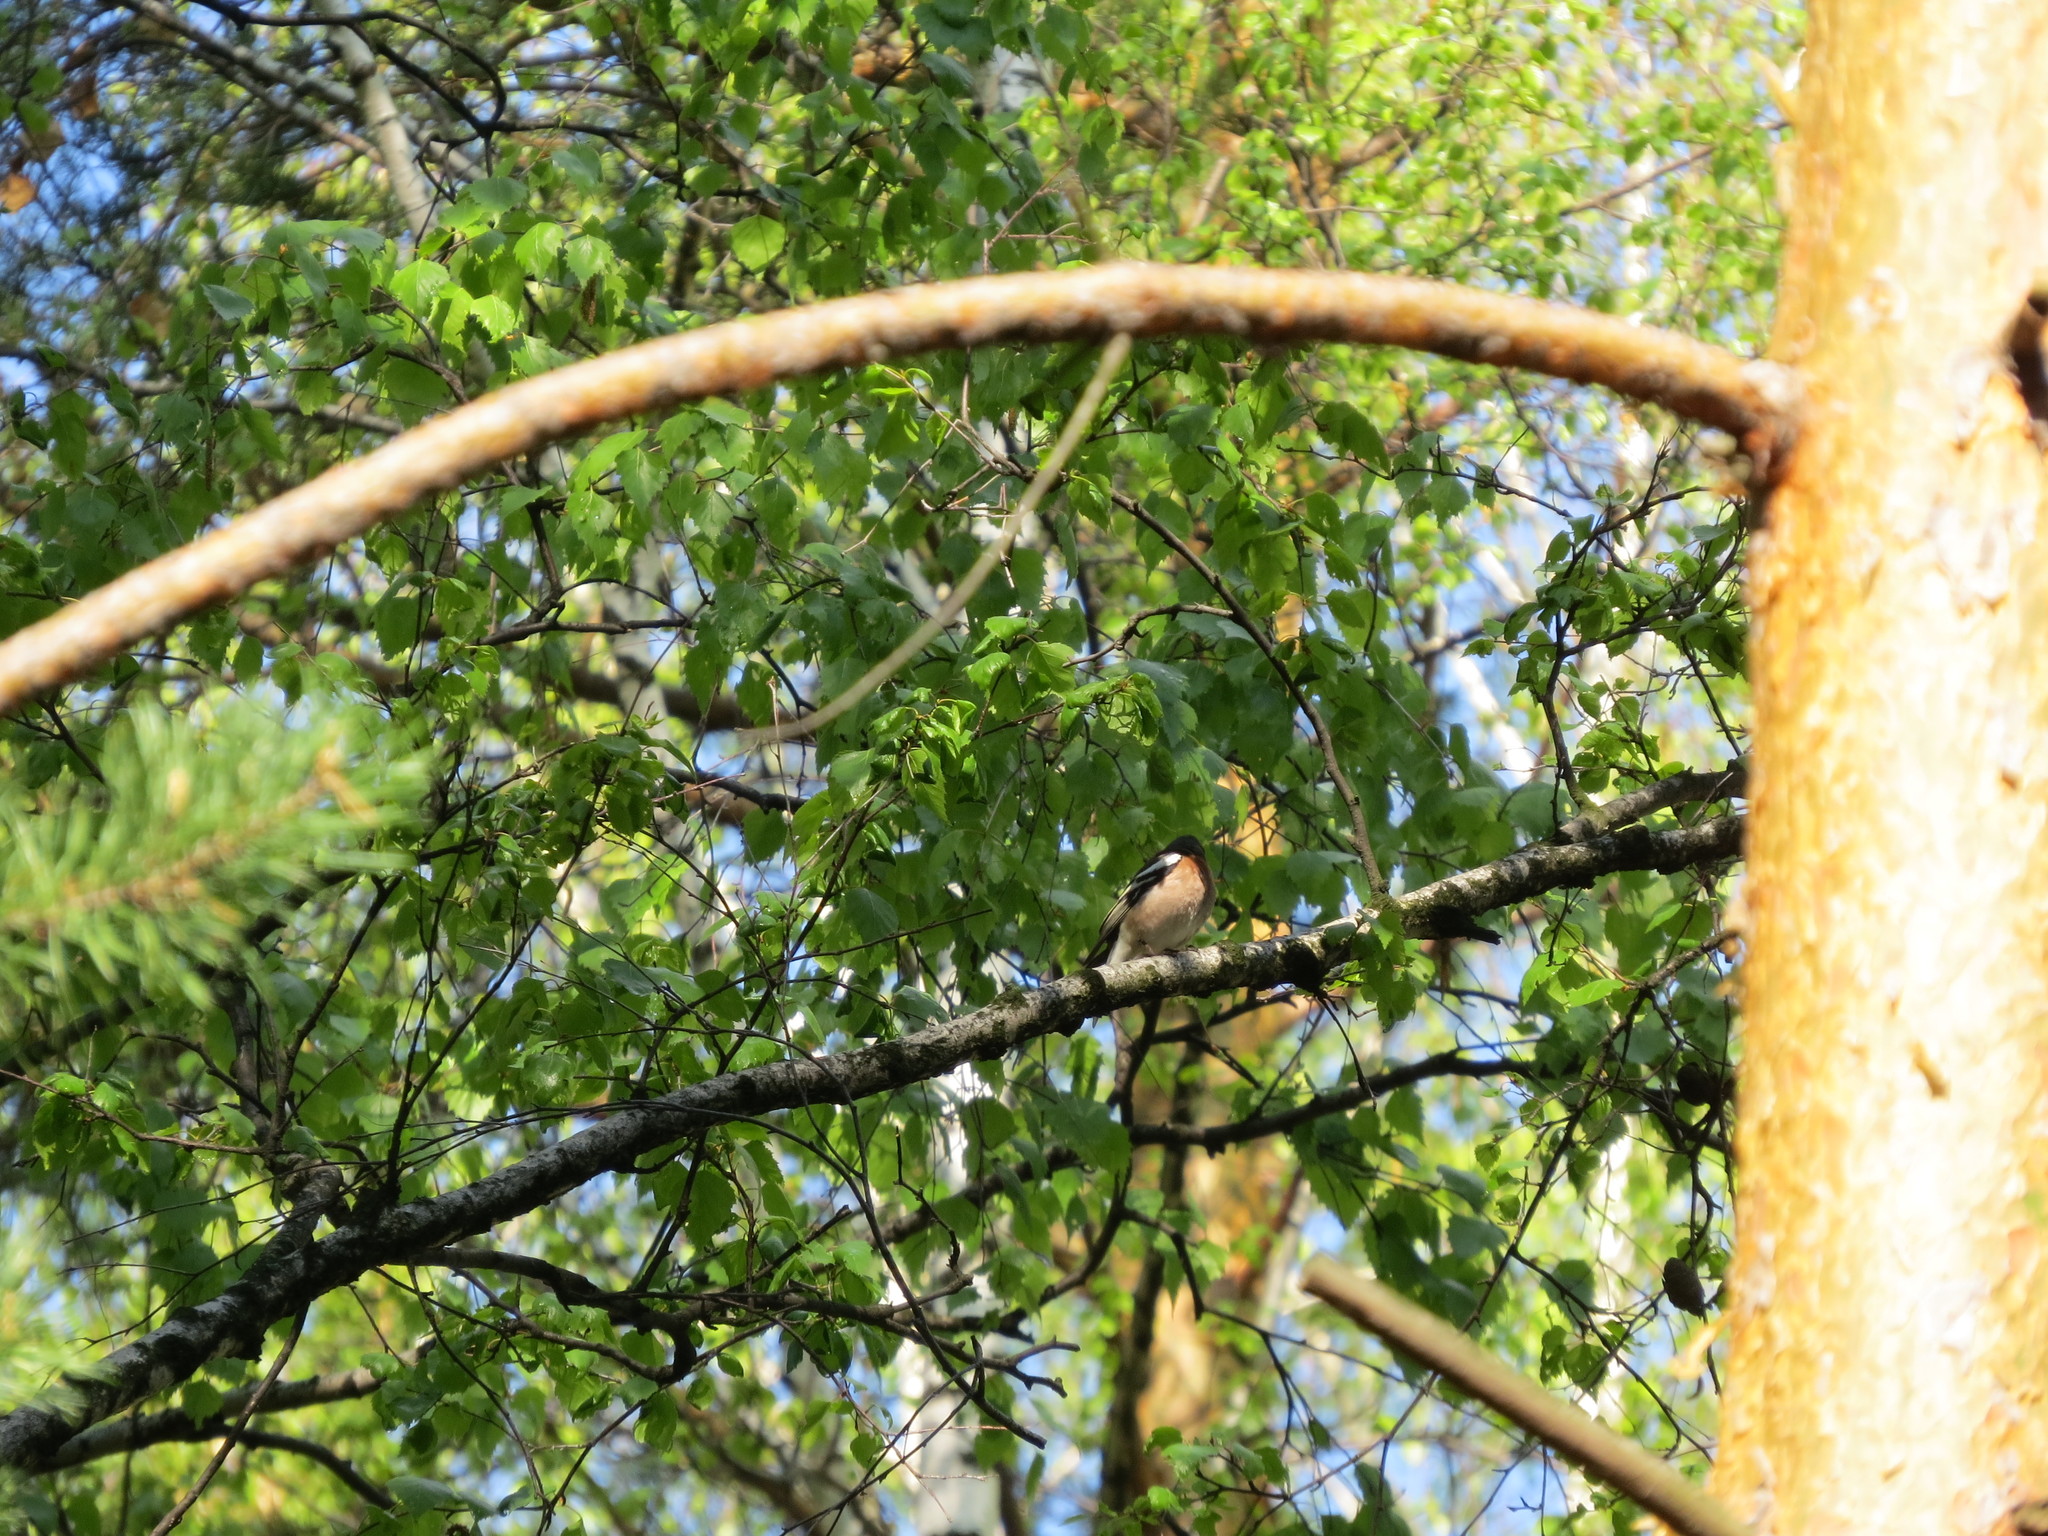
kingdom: Animalia
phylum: Chordata
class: Aves
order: Passeriformes
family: Fringillidae
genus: Fringilla
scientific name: Fringilla coelebs
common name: Common chaffinch
